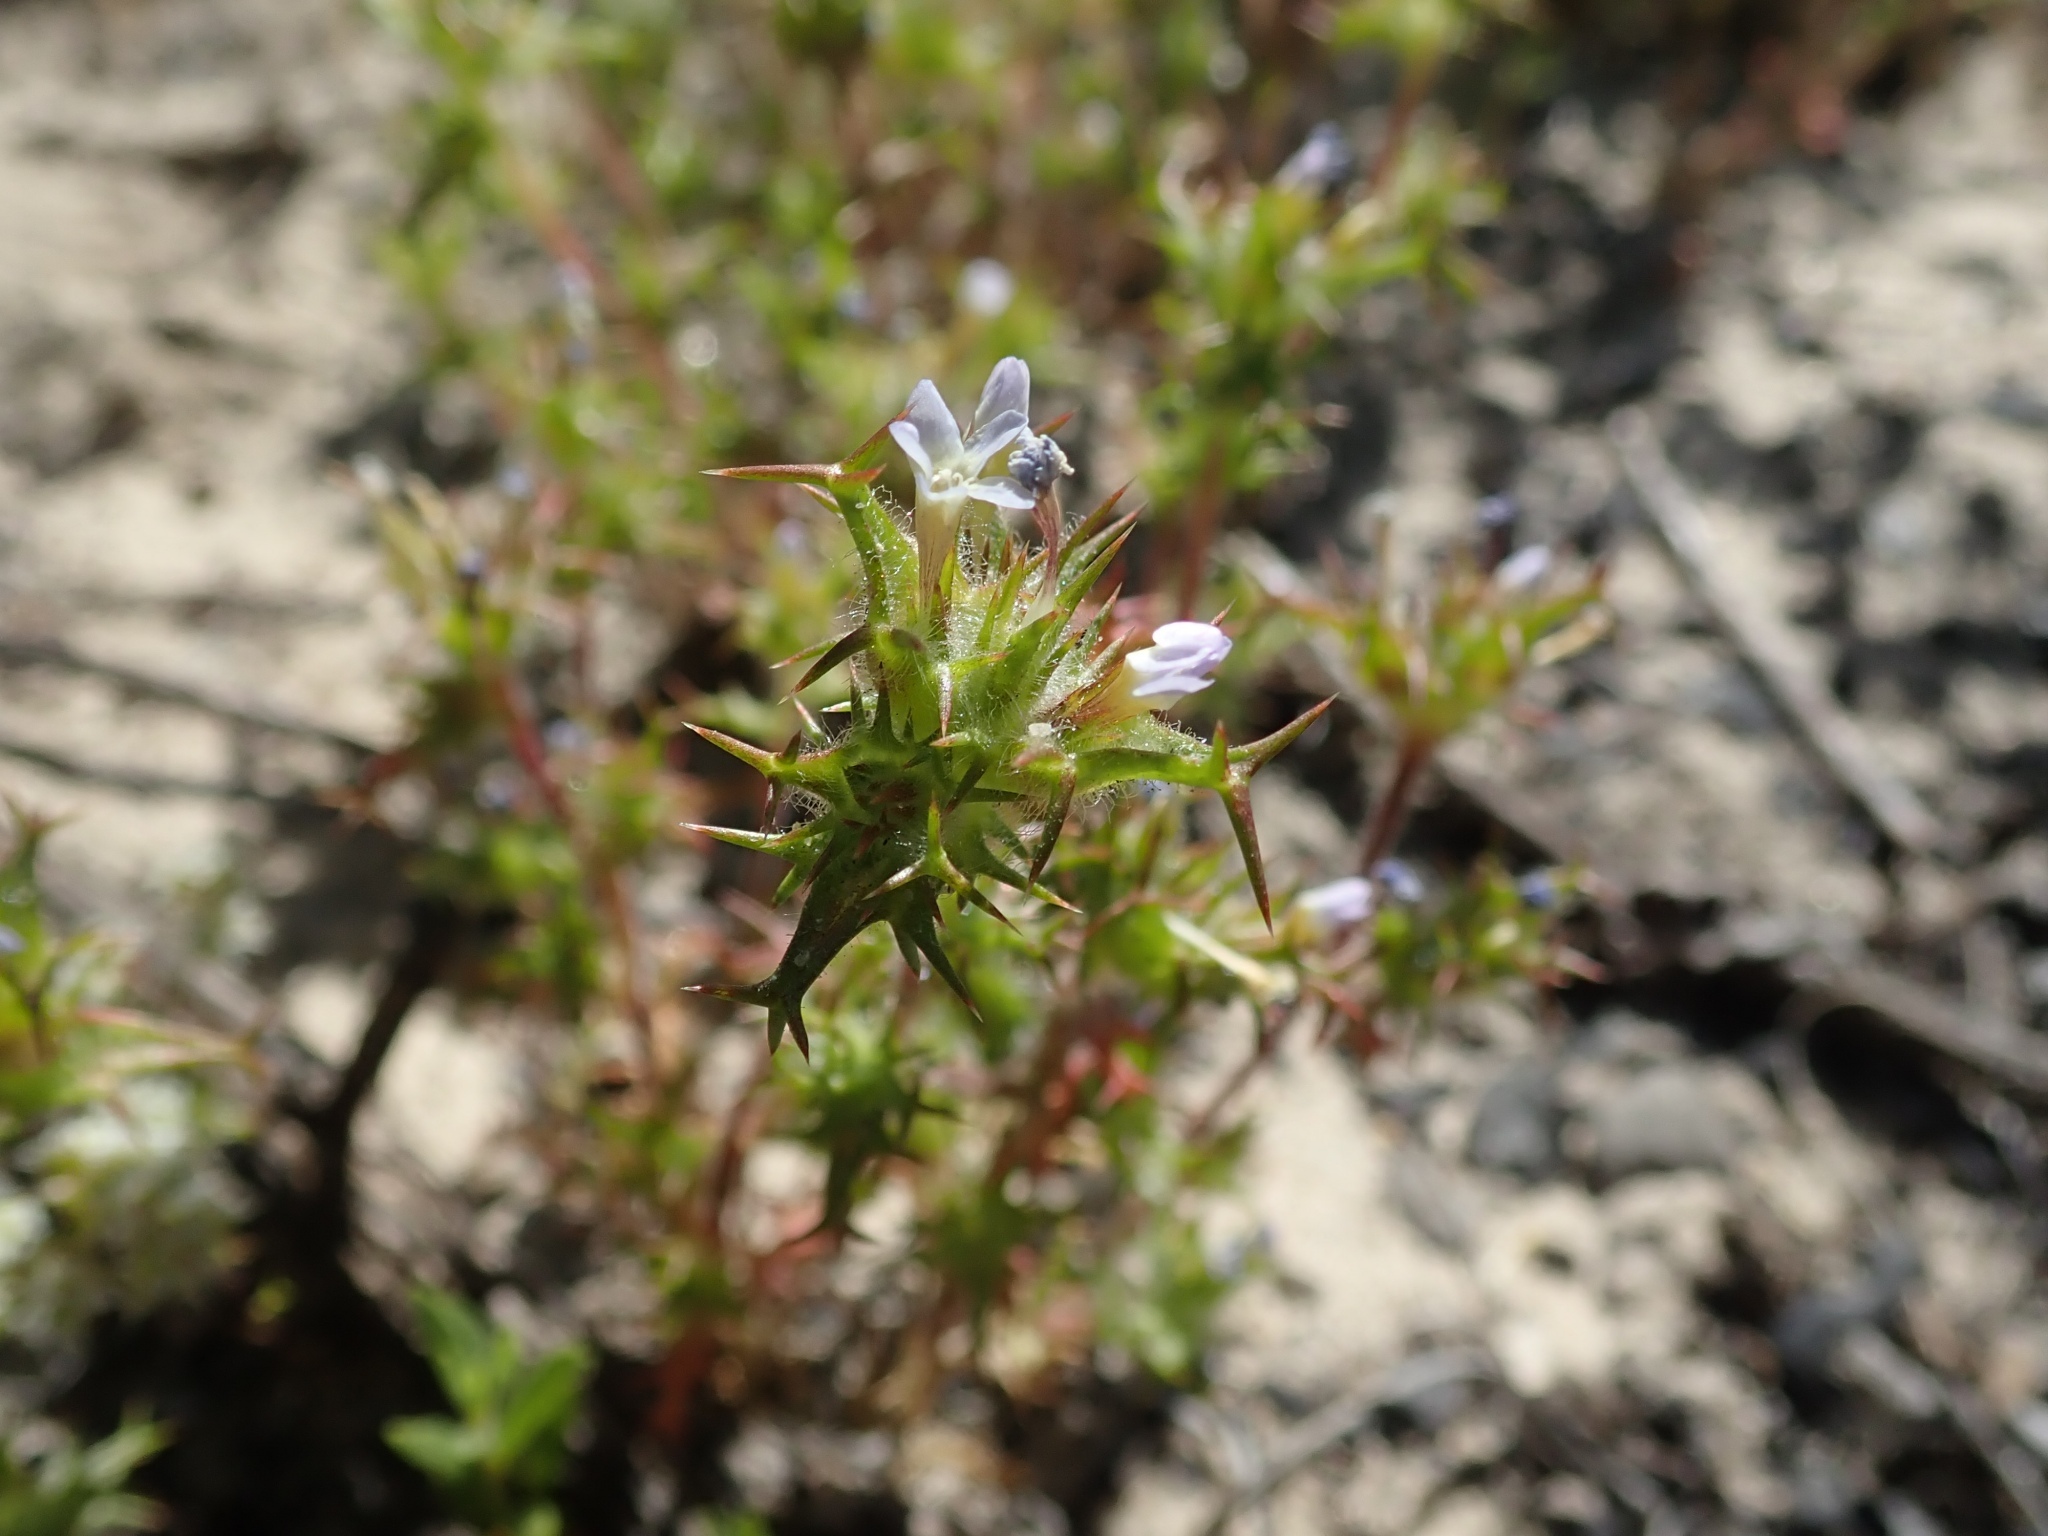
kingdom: Plantae
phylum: Tracheophyta
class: Magnoliopsida
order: Ericales
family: Polemoniaceae
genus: Navarretia
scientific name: Navarretia hamata
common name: Hooked navarretia
